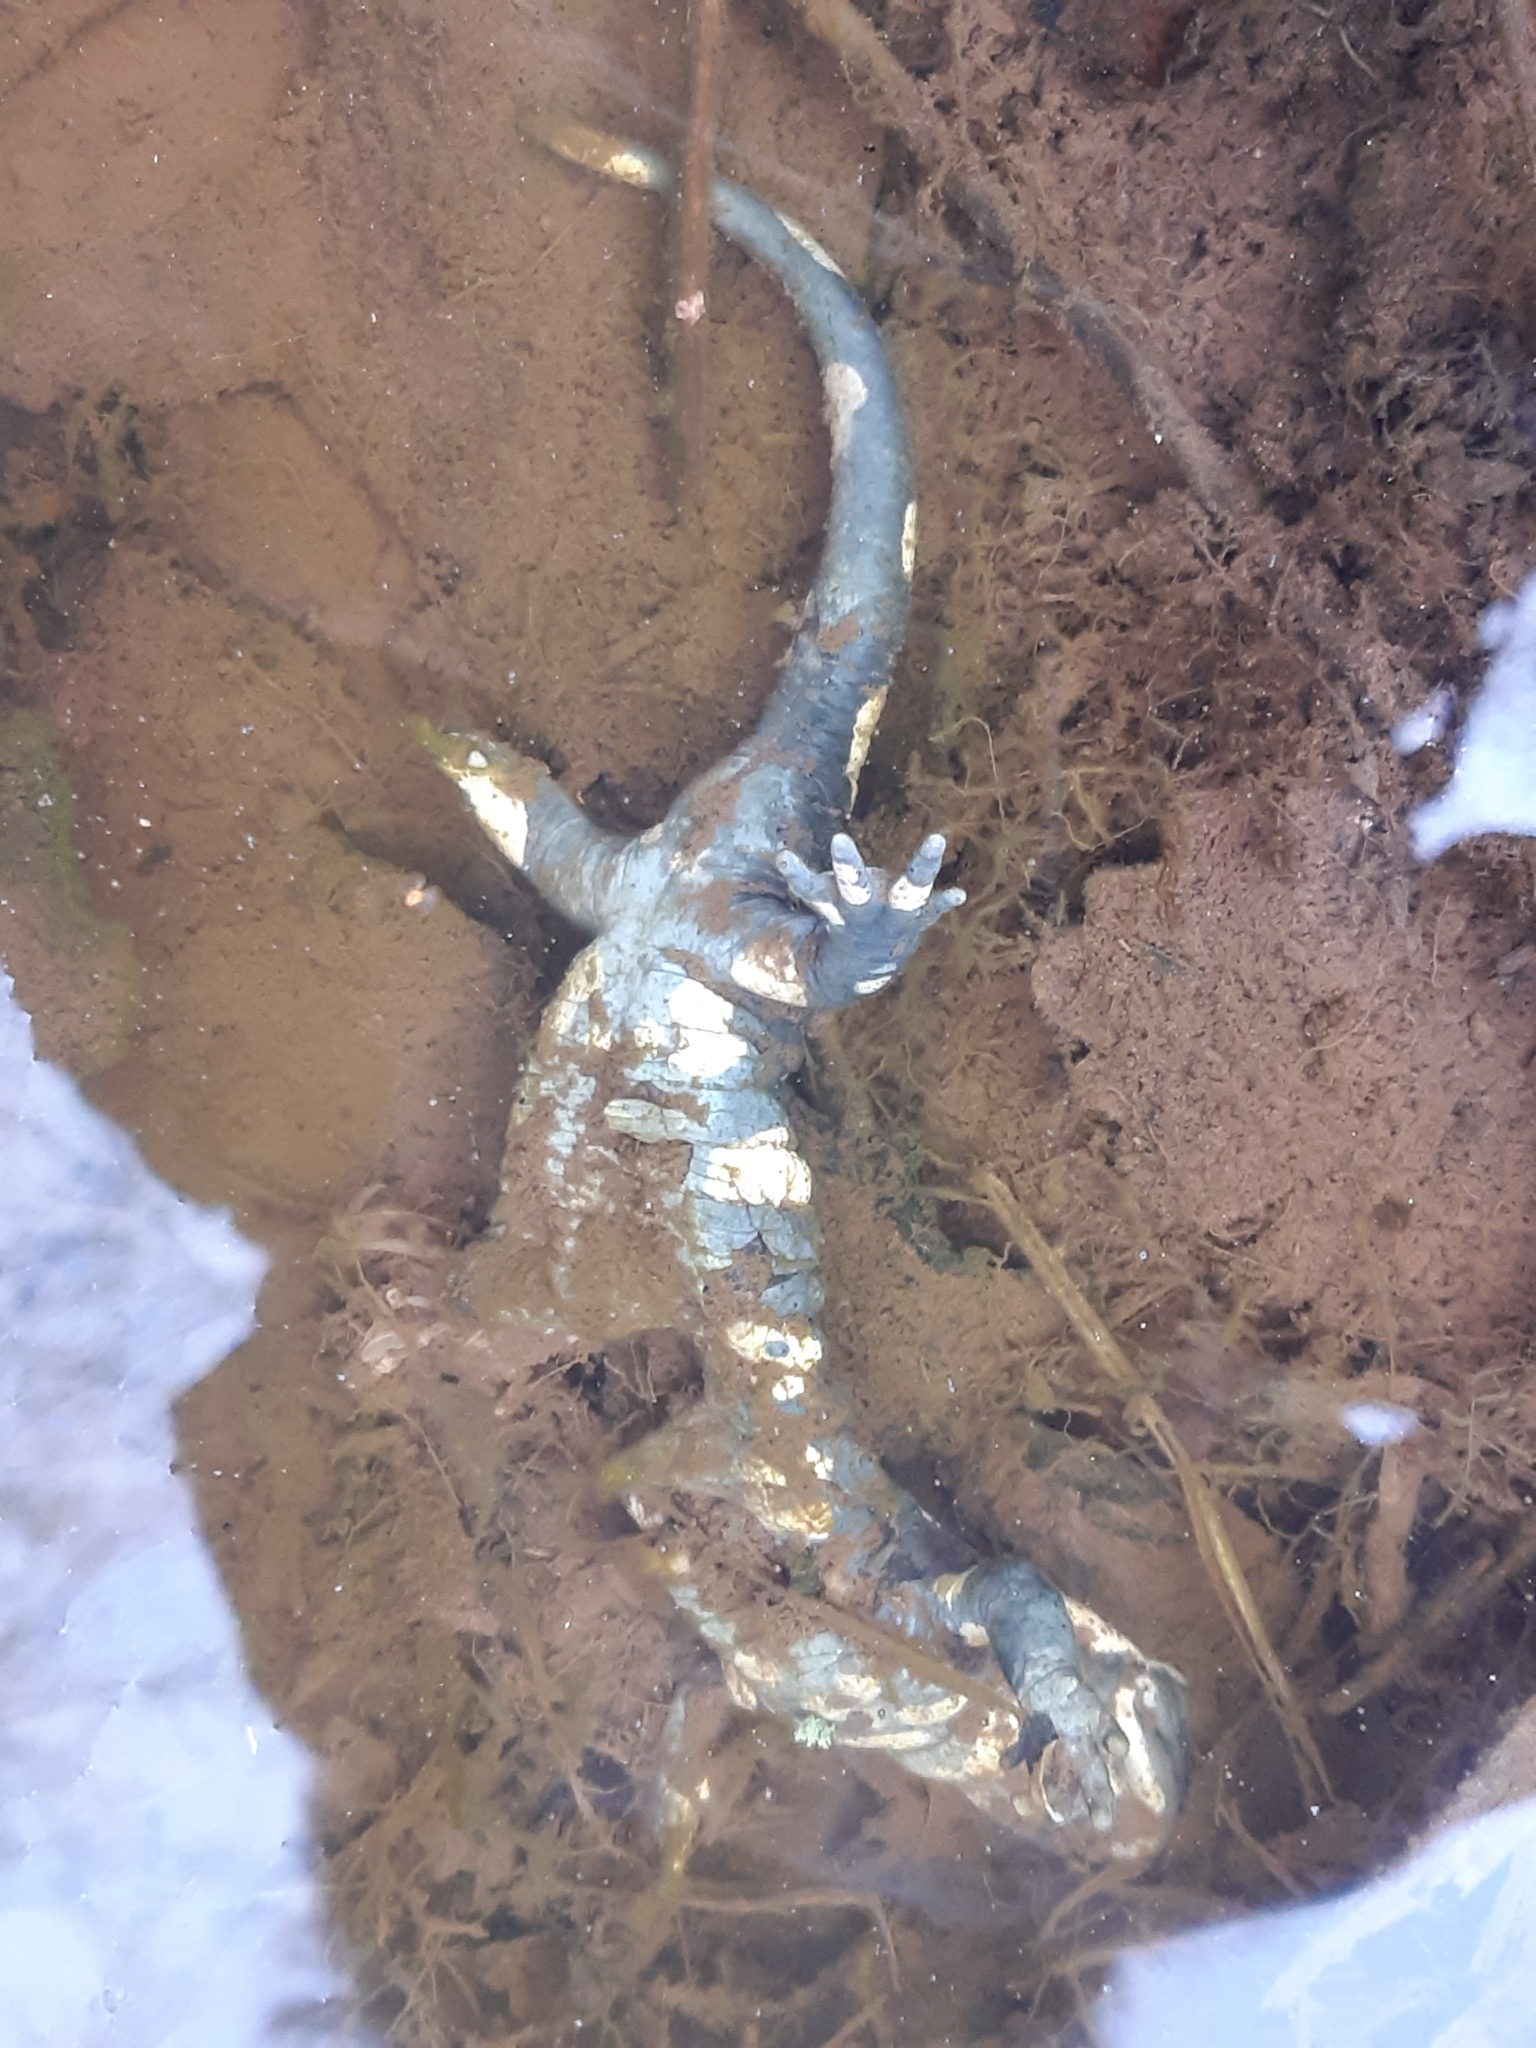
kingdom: Animalia
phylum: Chordata
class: Amphibia
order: Caudata
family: Salamandridae
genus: Salamandra
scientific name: Salamandra salamandra
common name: Fire salamander
